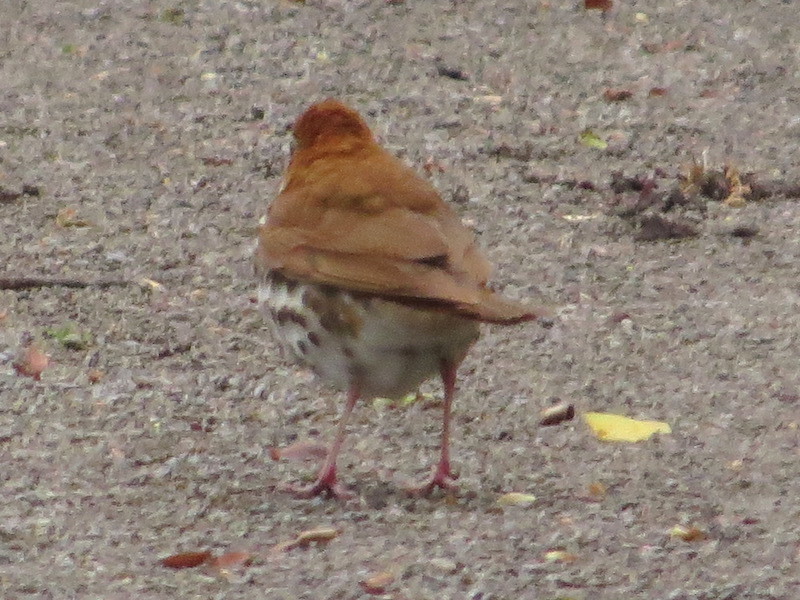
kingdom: Animalia
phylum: Chordata
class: Aves
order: Passeriformes
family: Turdidae
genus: Hylocichla
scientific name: Hylocichla mustelina
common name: Wood thrush
